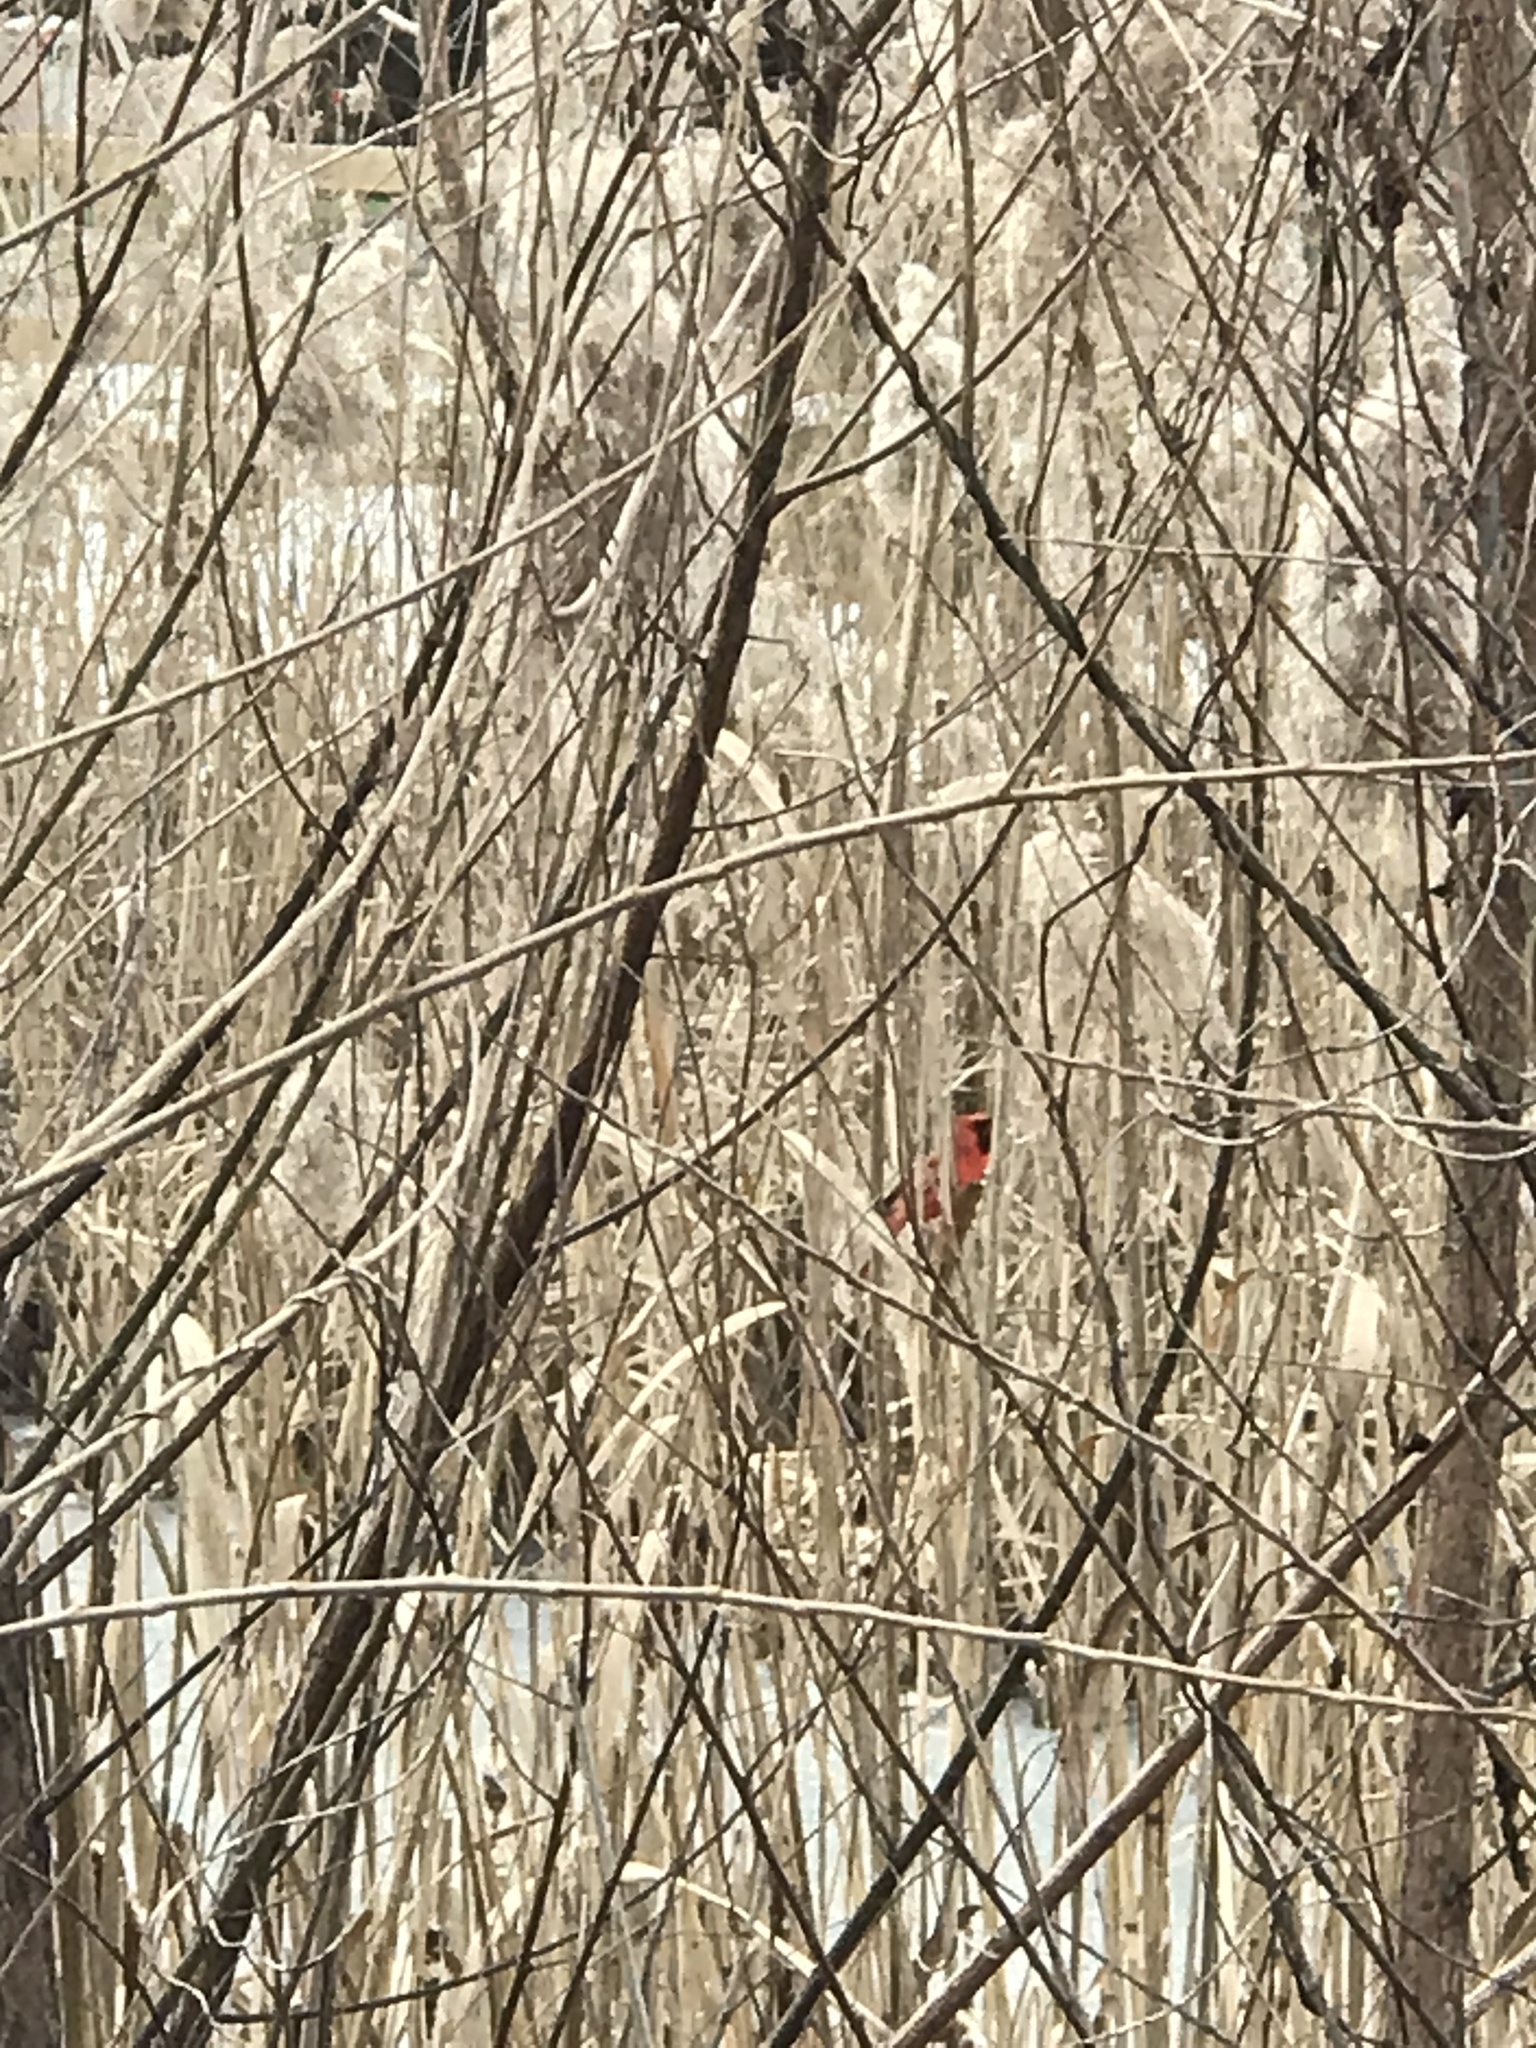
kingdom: Animalia
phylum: Chordata
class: Aves
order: Passeriformes
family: Cardinalidae
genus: Cardinalis
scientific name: Cardinalis cardinalis
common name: Northern cardinal
